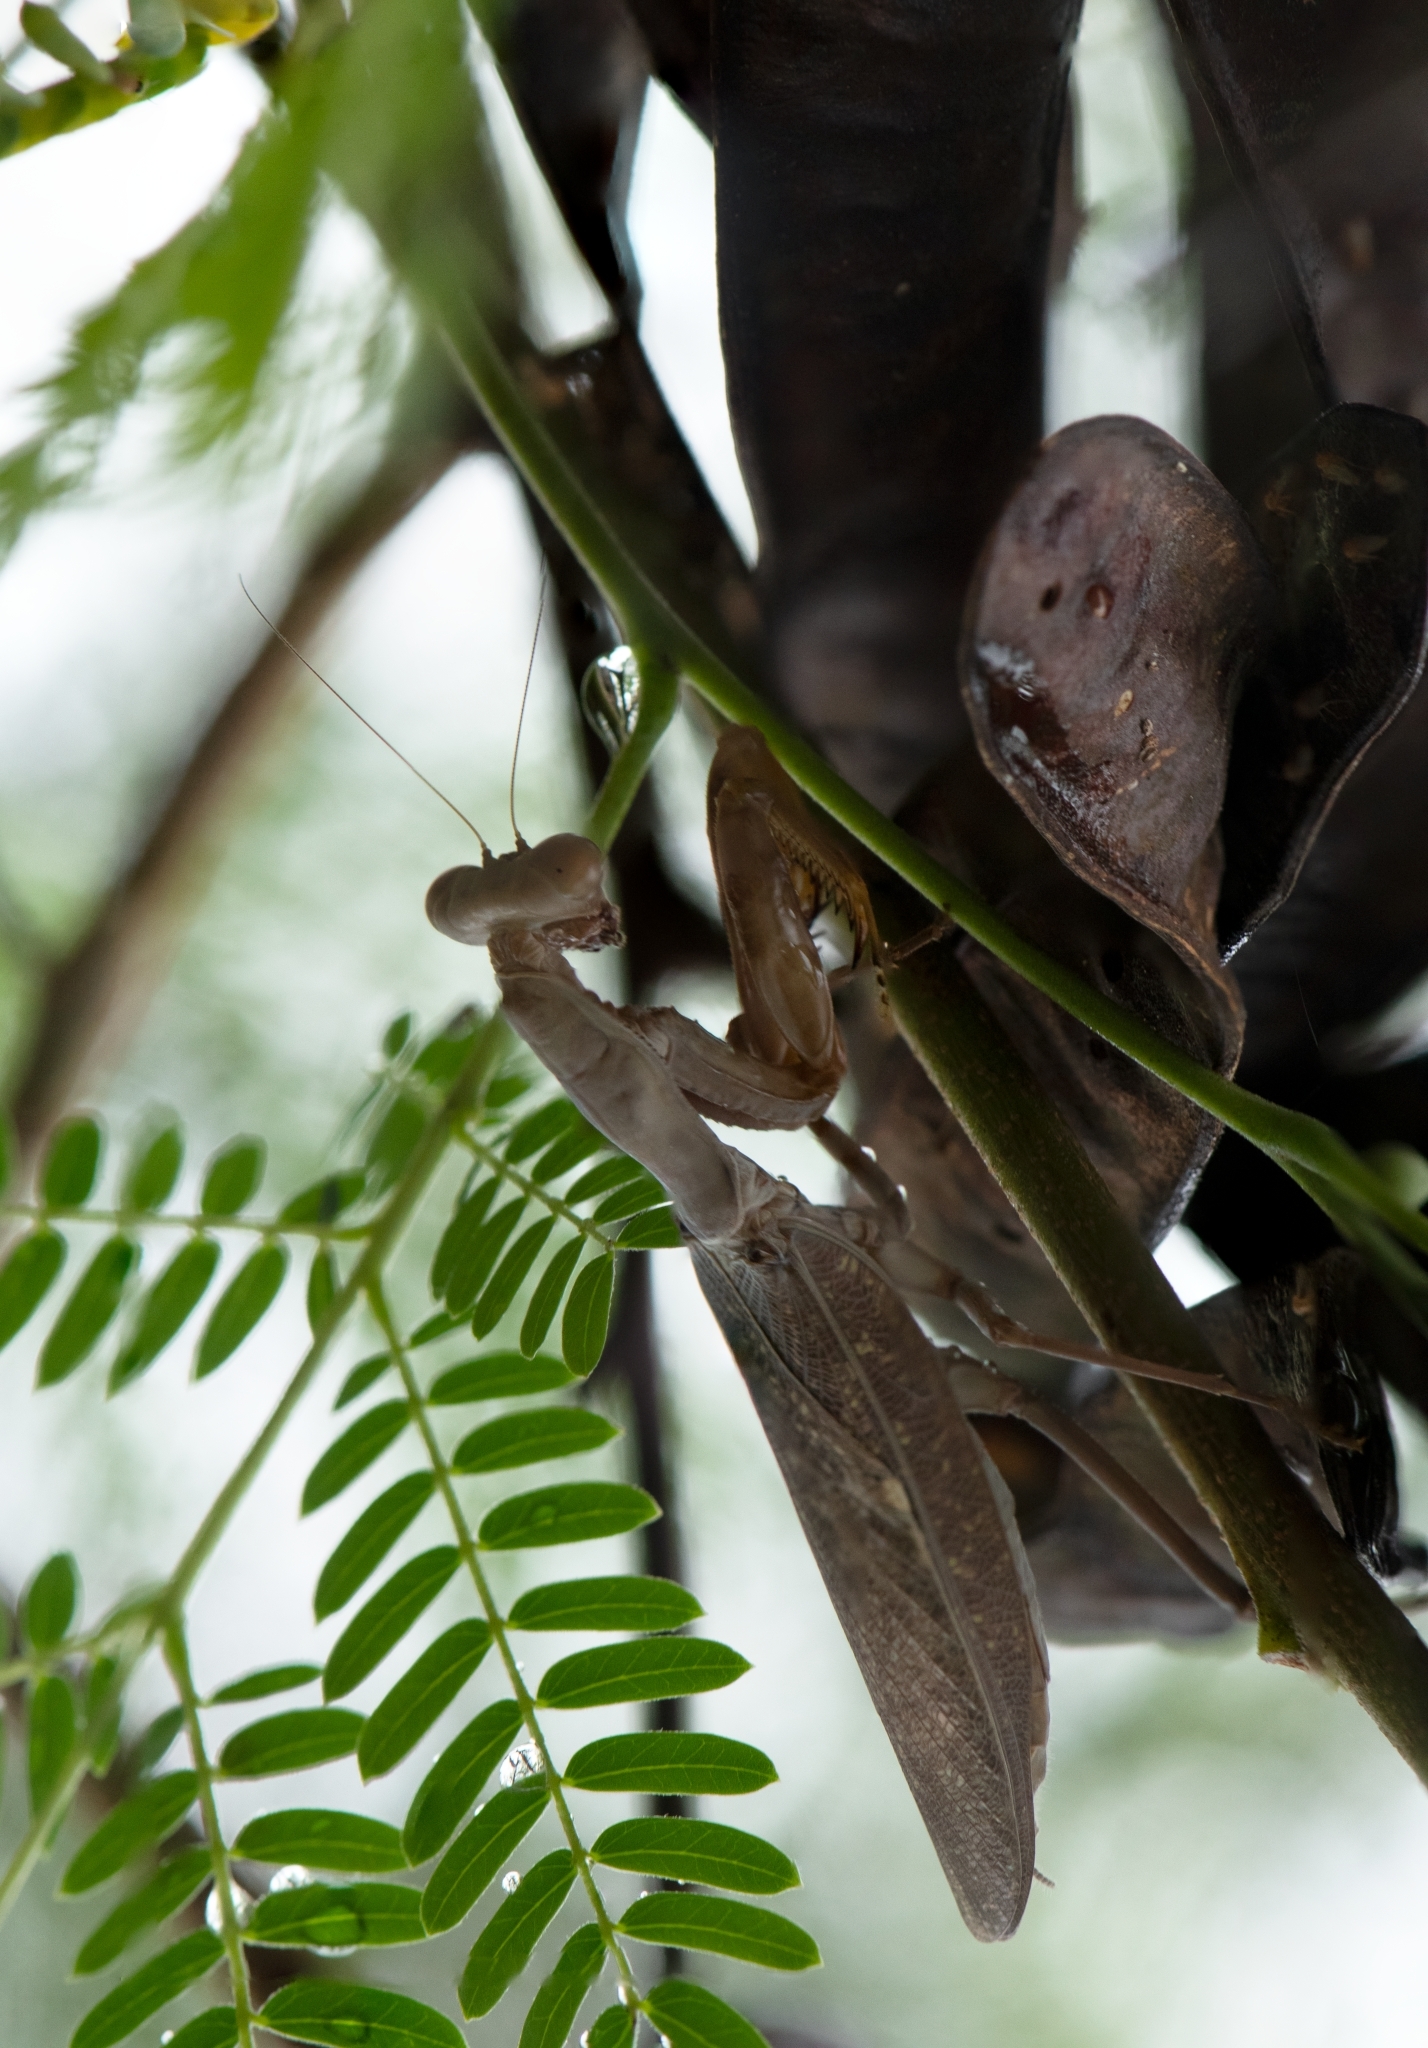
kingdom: Animalia
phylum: Arthropoda
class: Insecta
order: Mantodea
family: Mantidae
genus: Hierodula
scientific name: Hierodula patellifera
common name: Asian mantis
